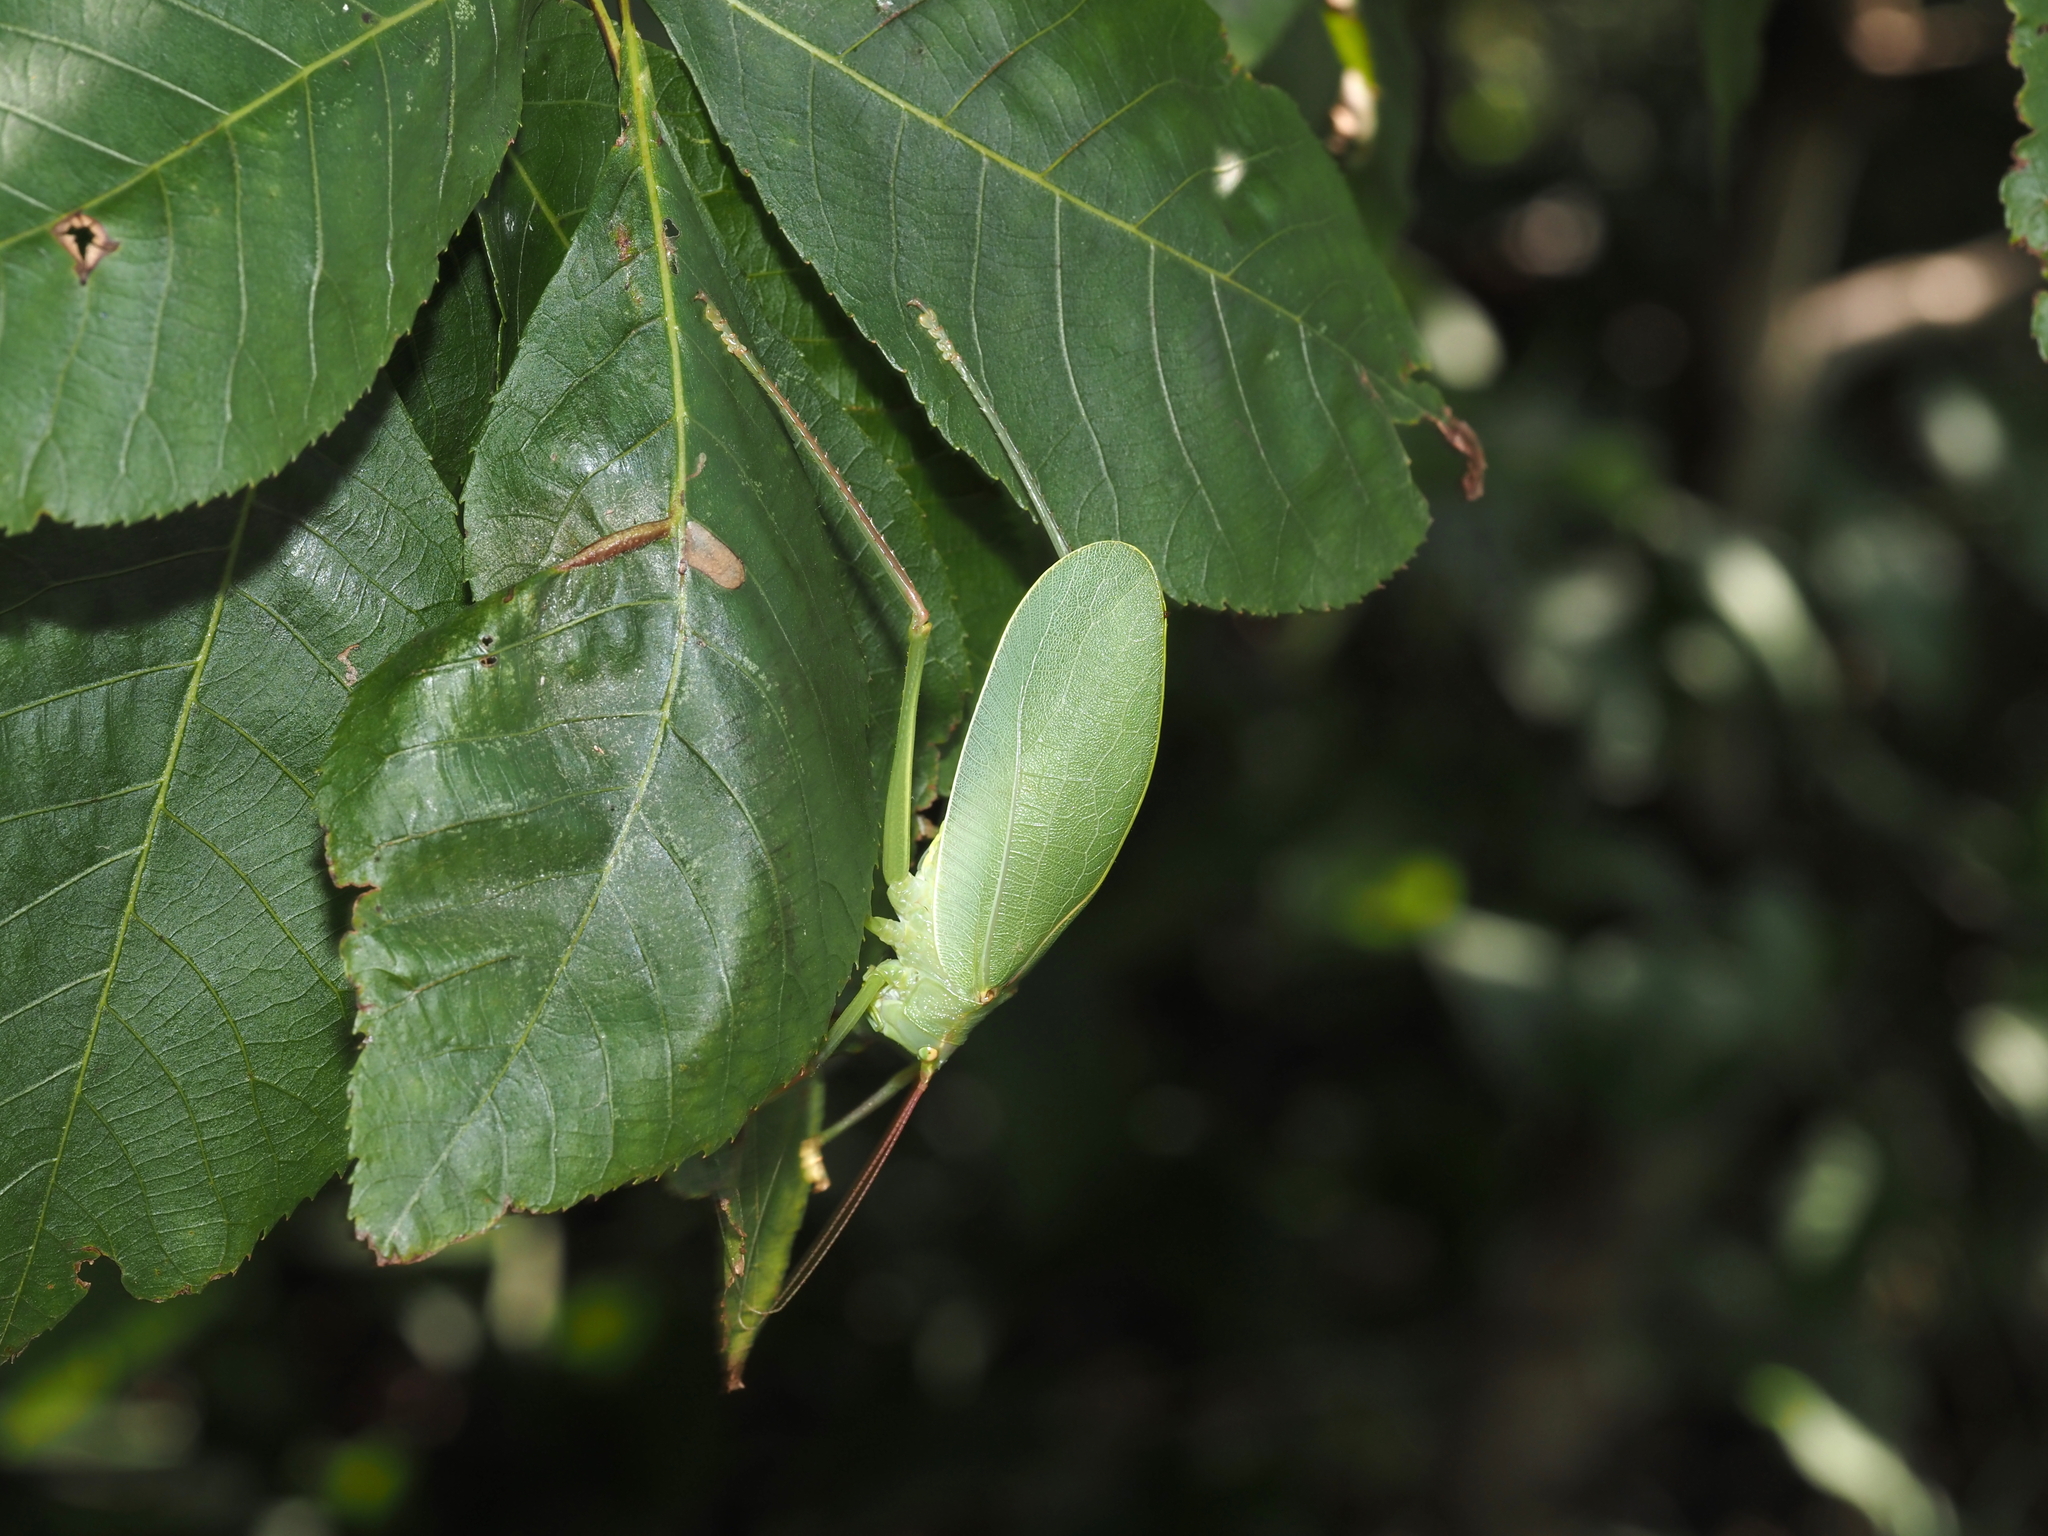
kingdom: Animalia
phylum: Arthropoda
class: Insecta
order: Orthoptera
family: Tettigoniidae
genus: Pterophylla
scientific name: Pterophylla camellifolia
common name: Common true katydid
